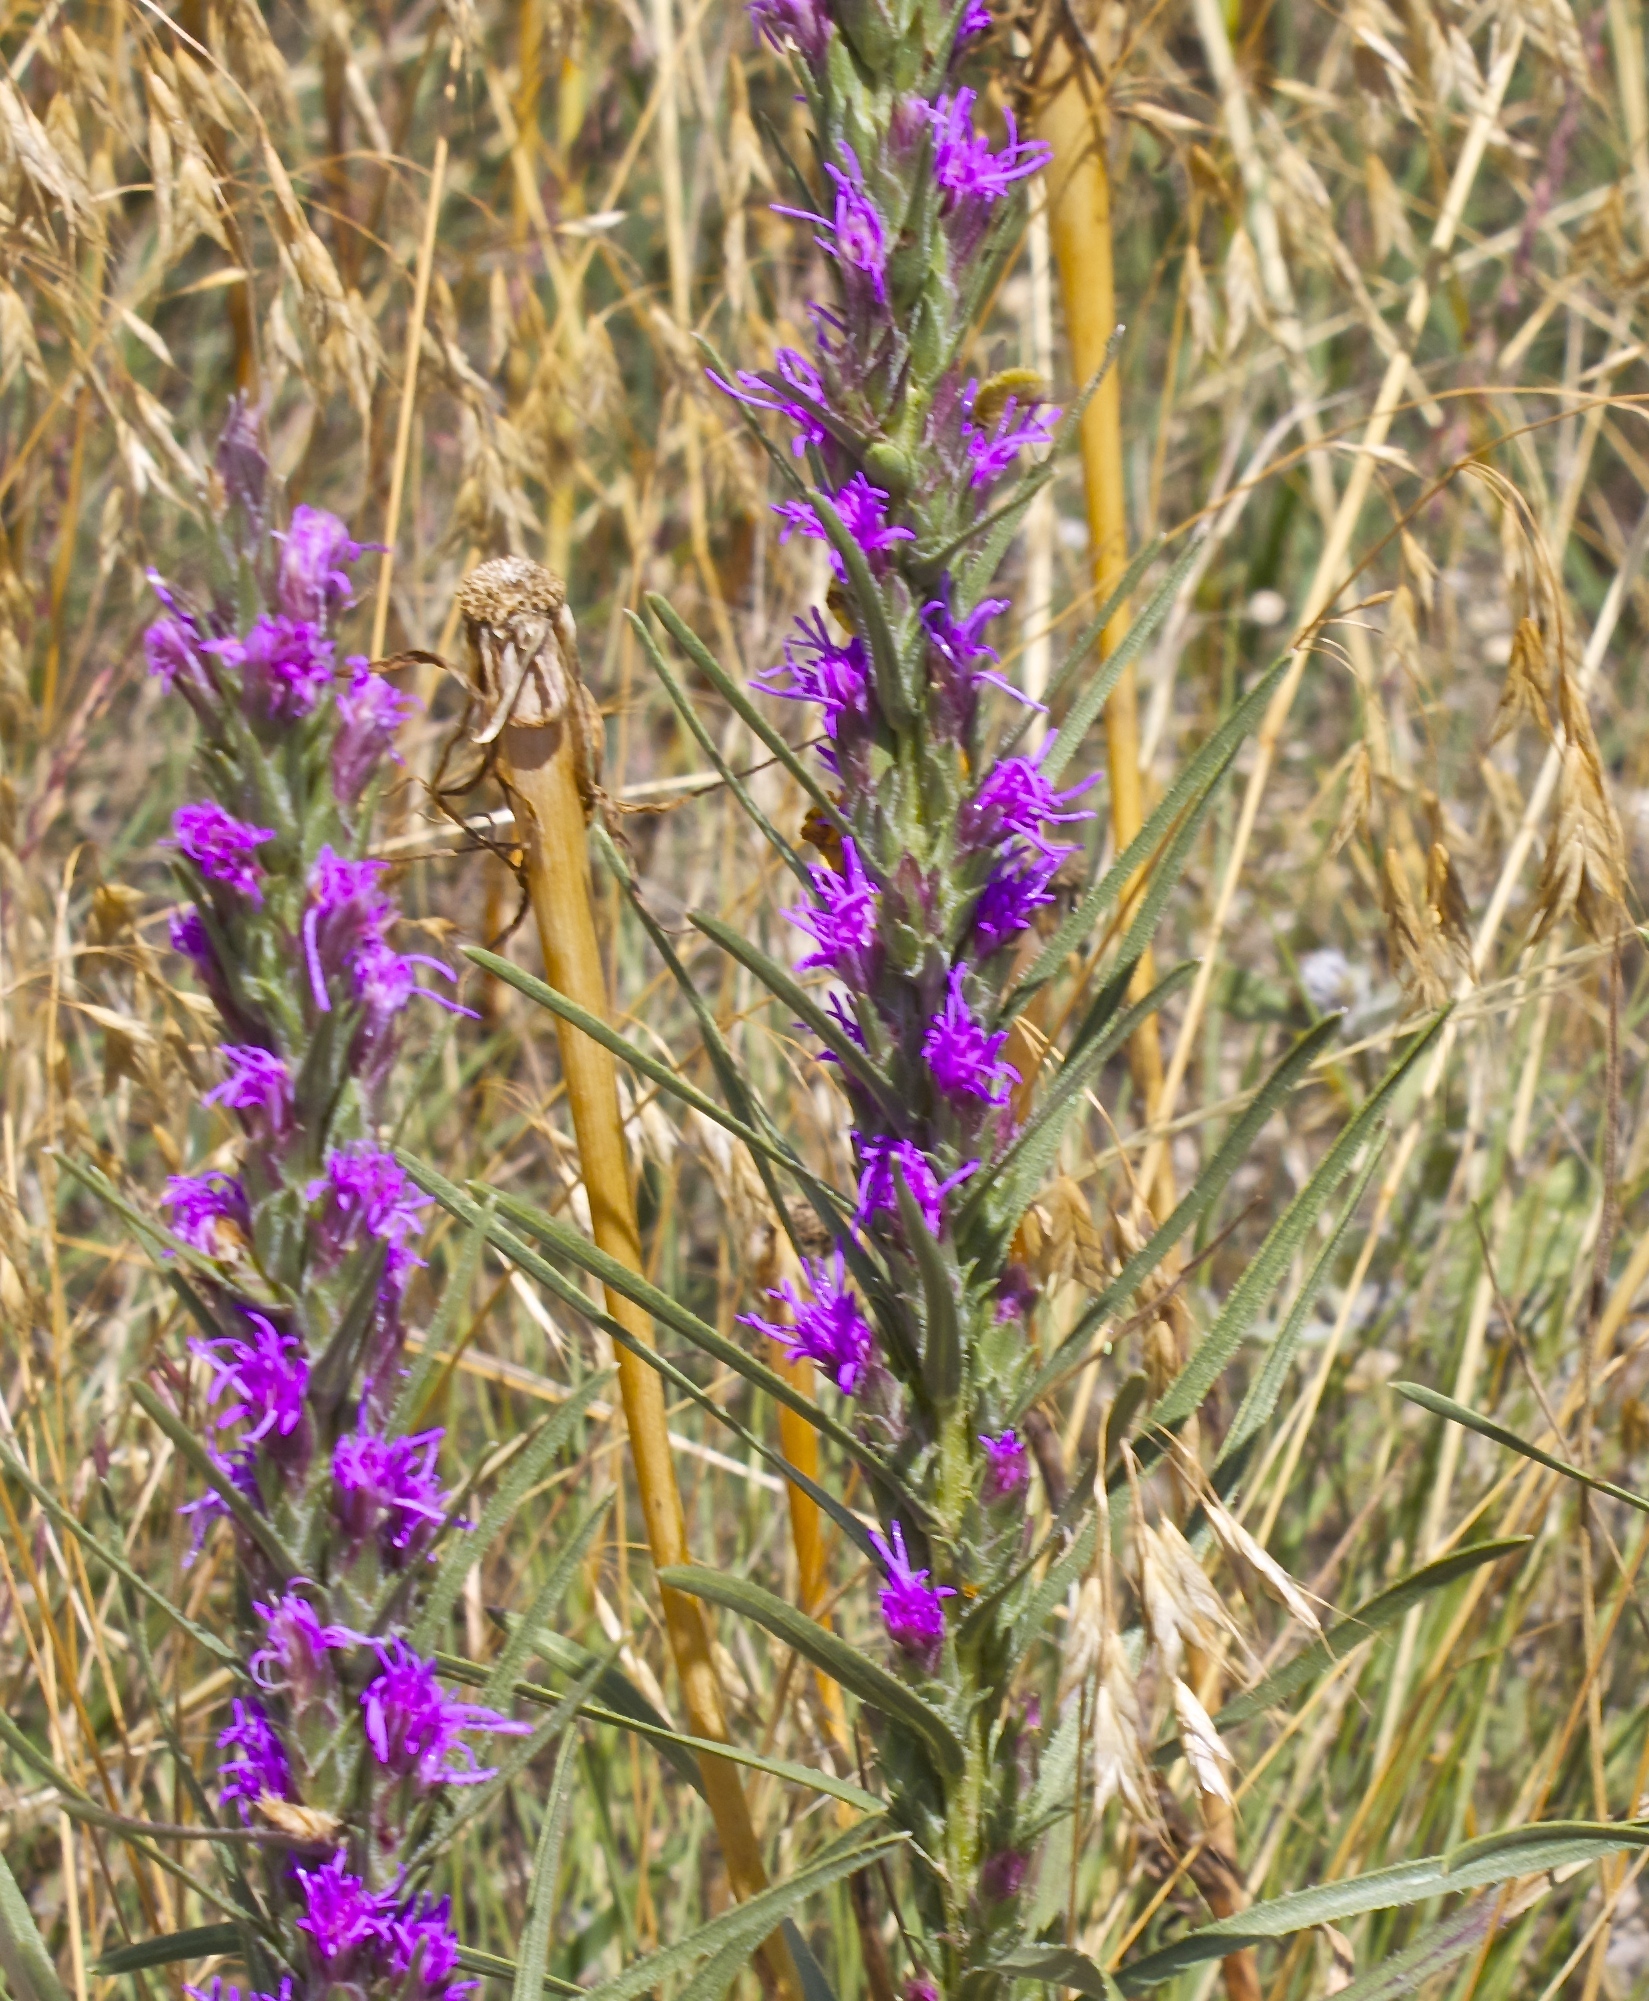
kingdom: Plantae
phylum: Tracheophyta
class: Magnoliopsida
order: Asterales
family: Asteraceae
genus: Liatris
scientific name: Liatris punctata
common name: Dotted gayfeather
